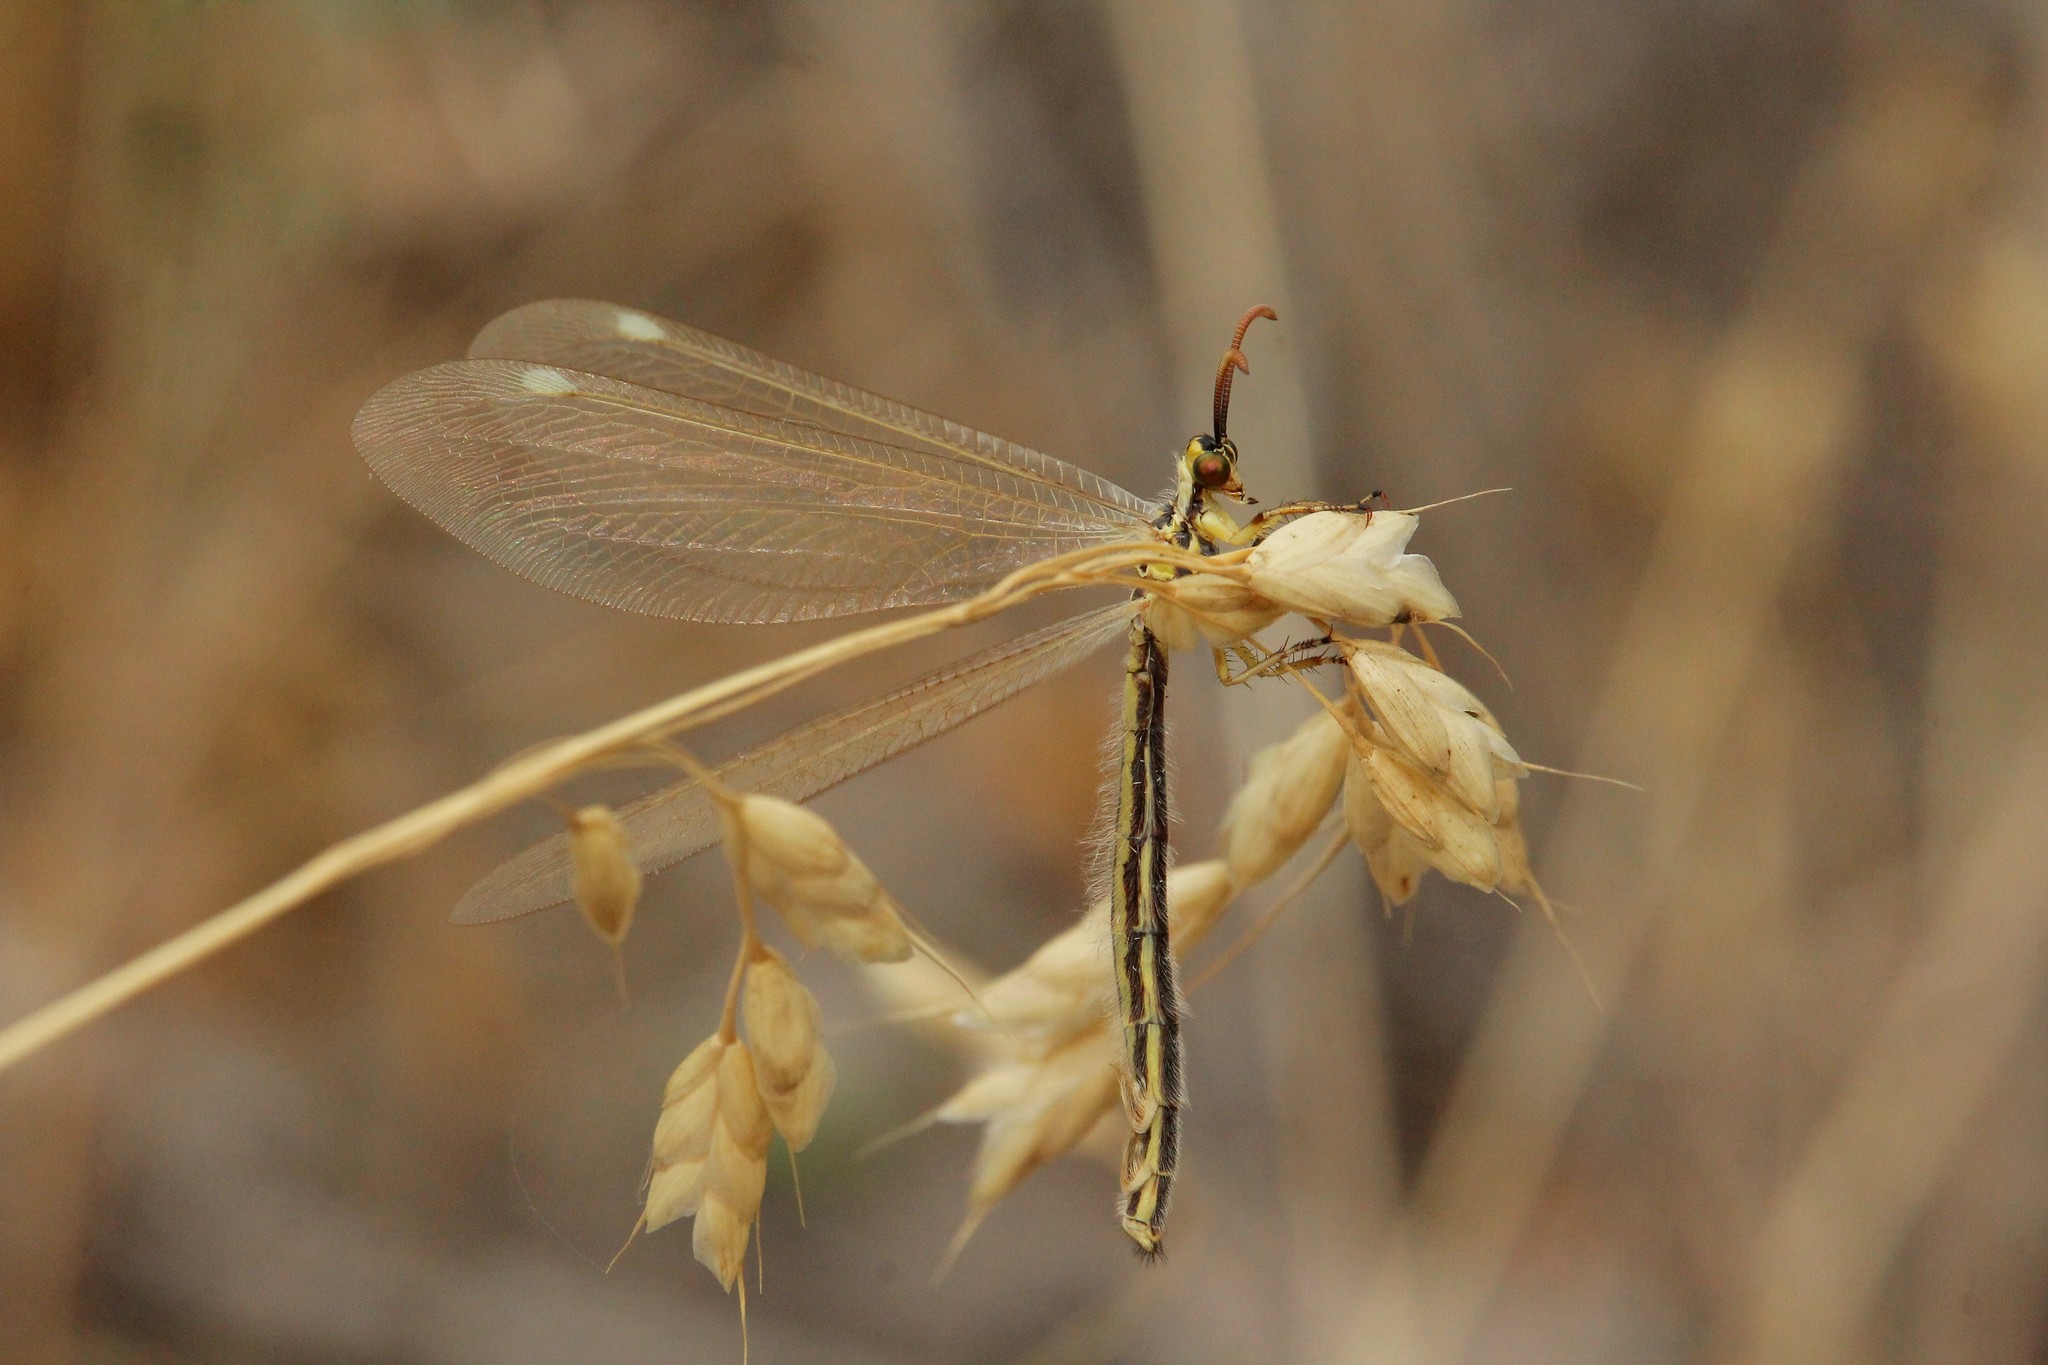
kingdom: Animalia
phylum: Arthropoda
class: Insecta
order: Neuroptera
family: Myrmeleontidae
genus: Myrmecaelurus
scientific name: Myrmecaelurus trigrammus
